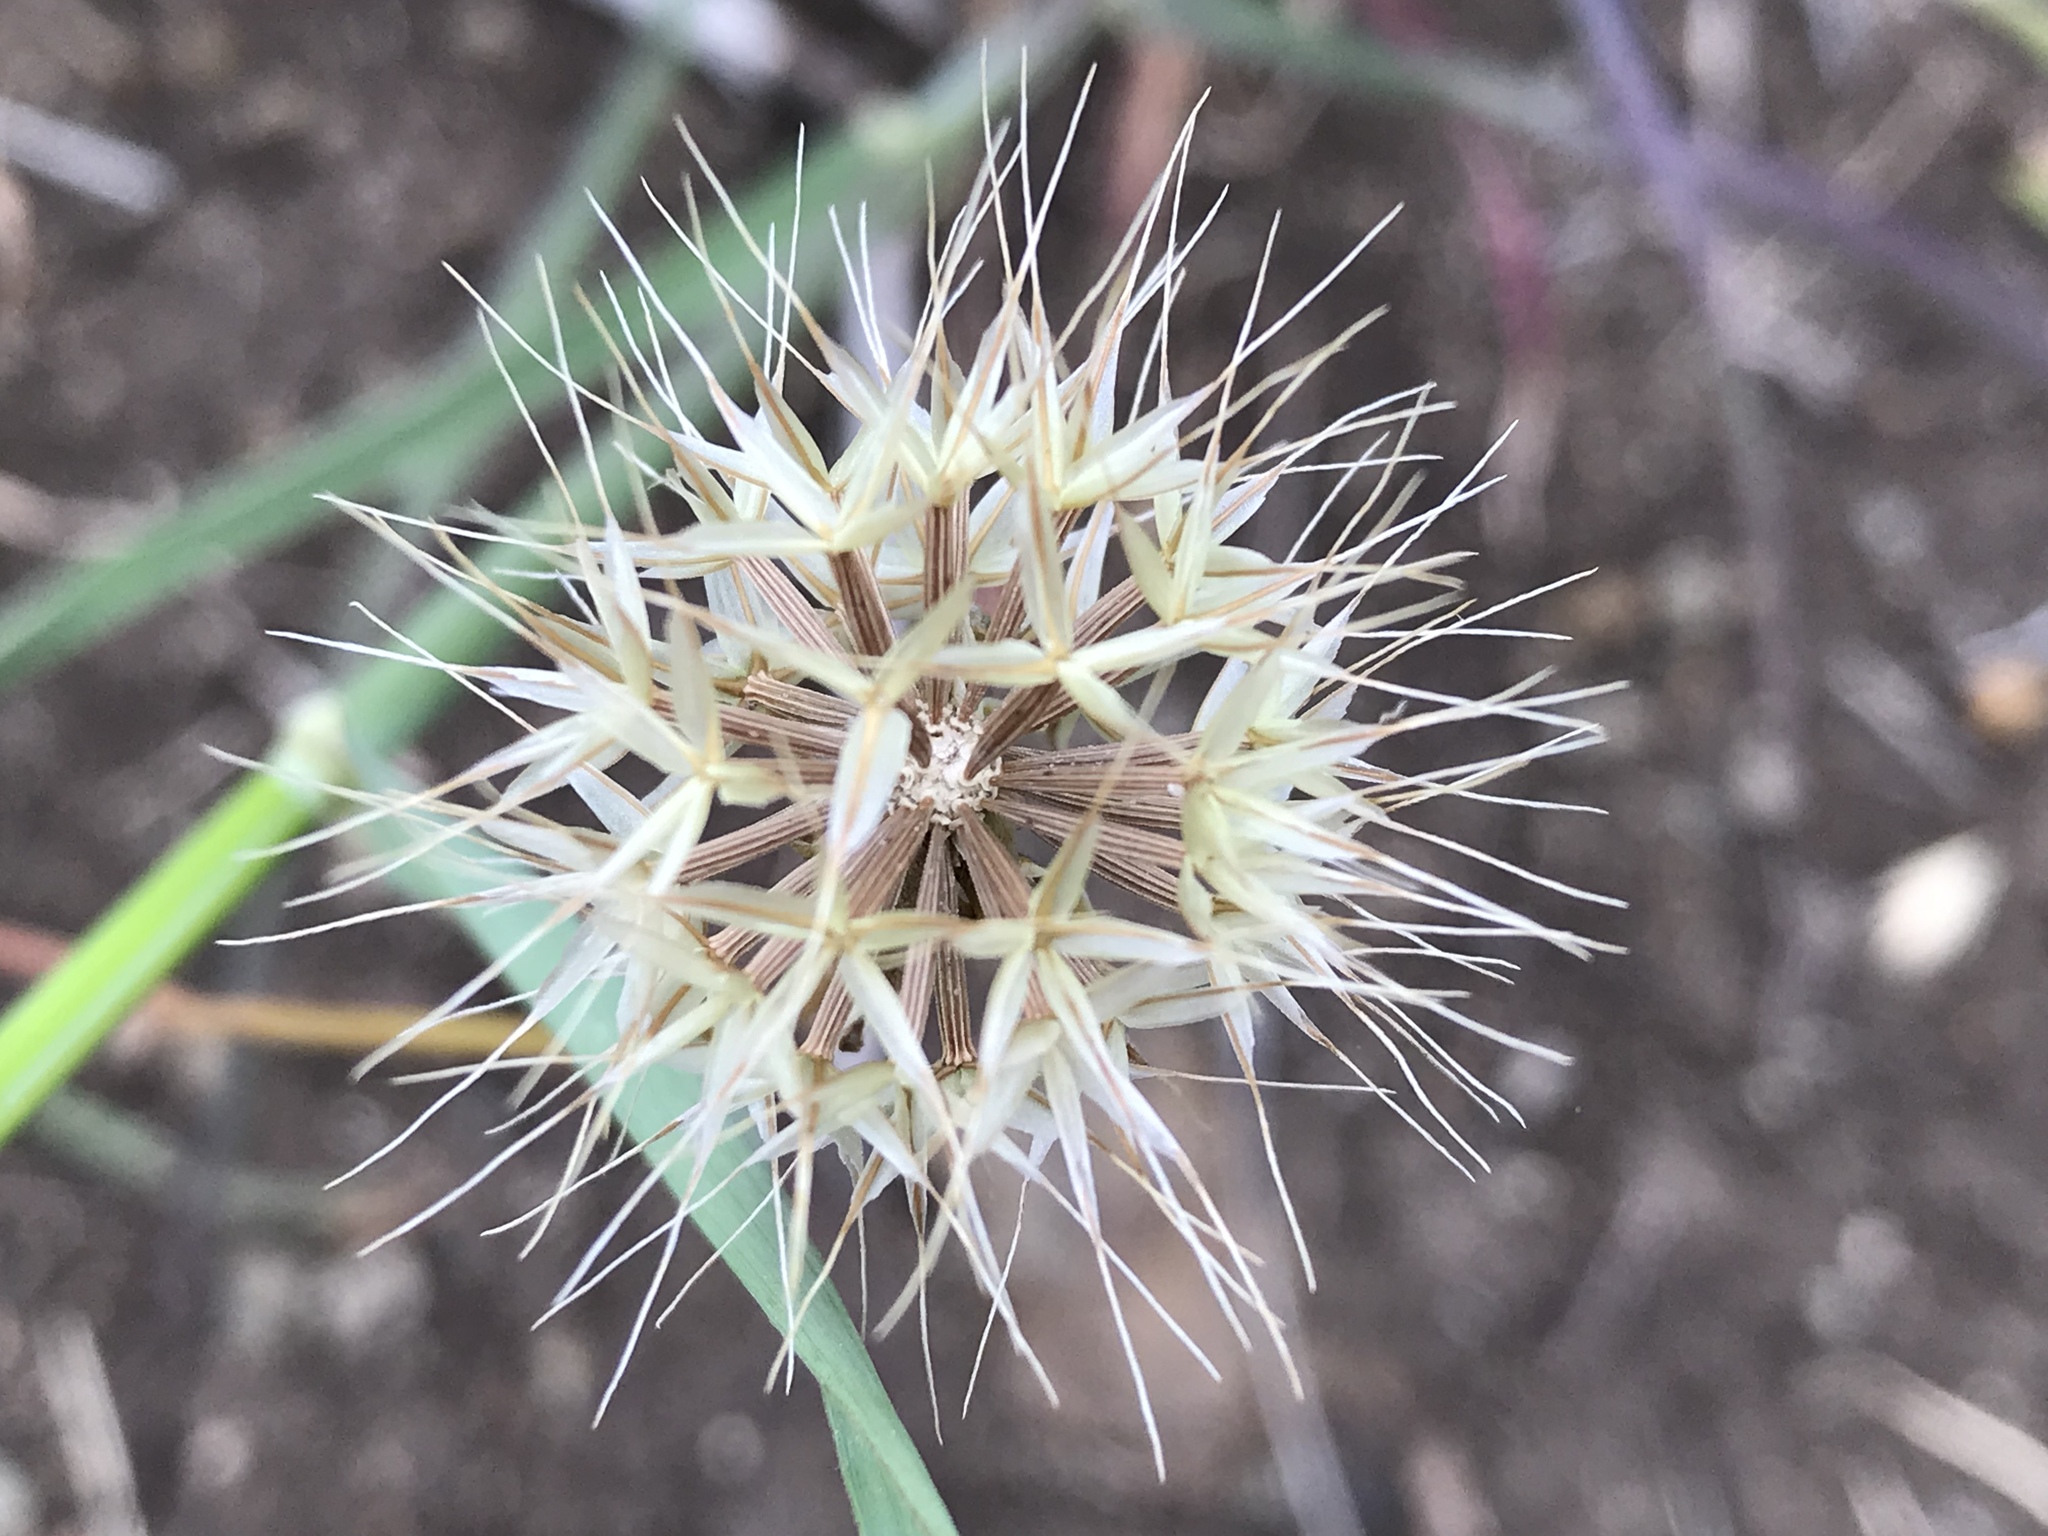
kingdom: Plantae
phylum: Tracheophyta
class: Magnoliopsida
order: Asterales
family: Asteraceae
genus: Microseris
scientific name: Microseris lindleyi
